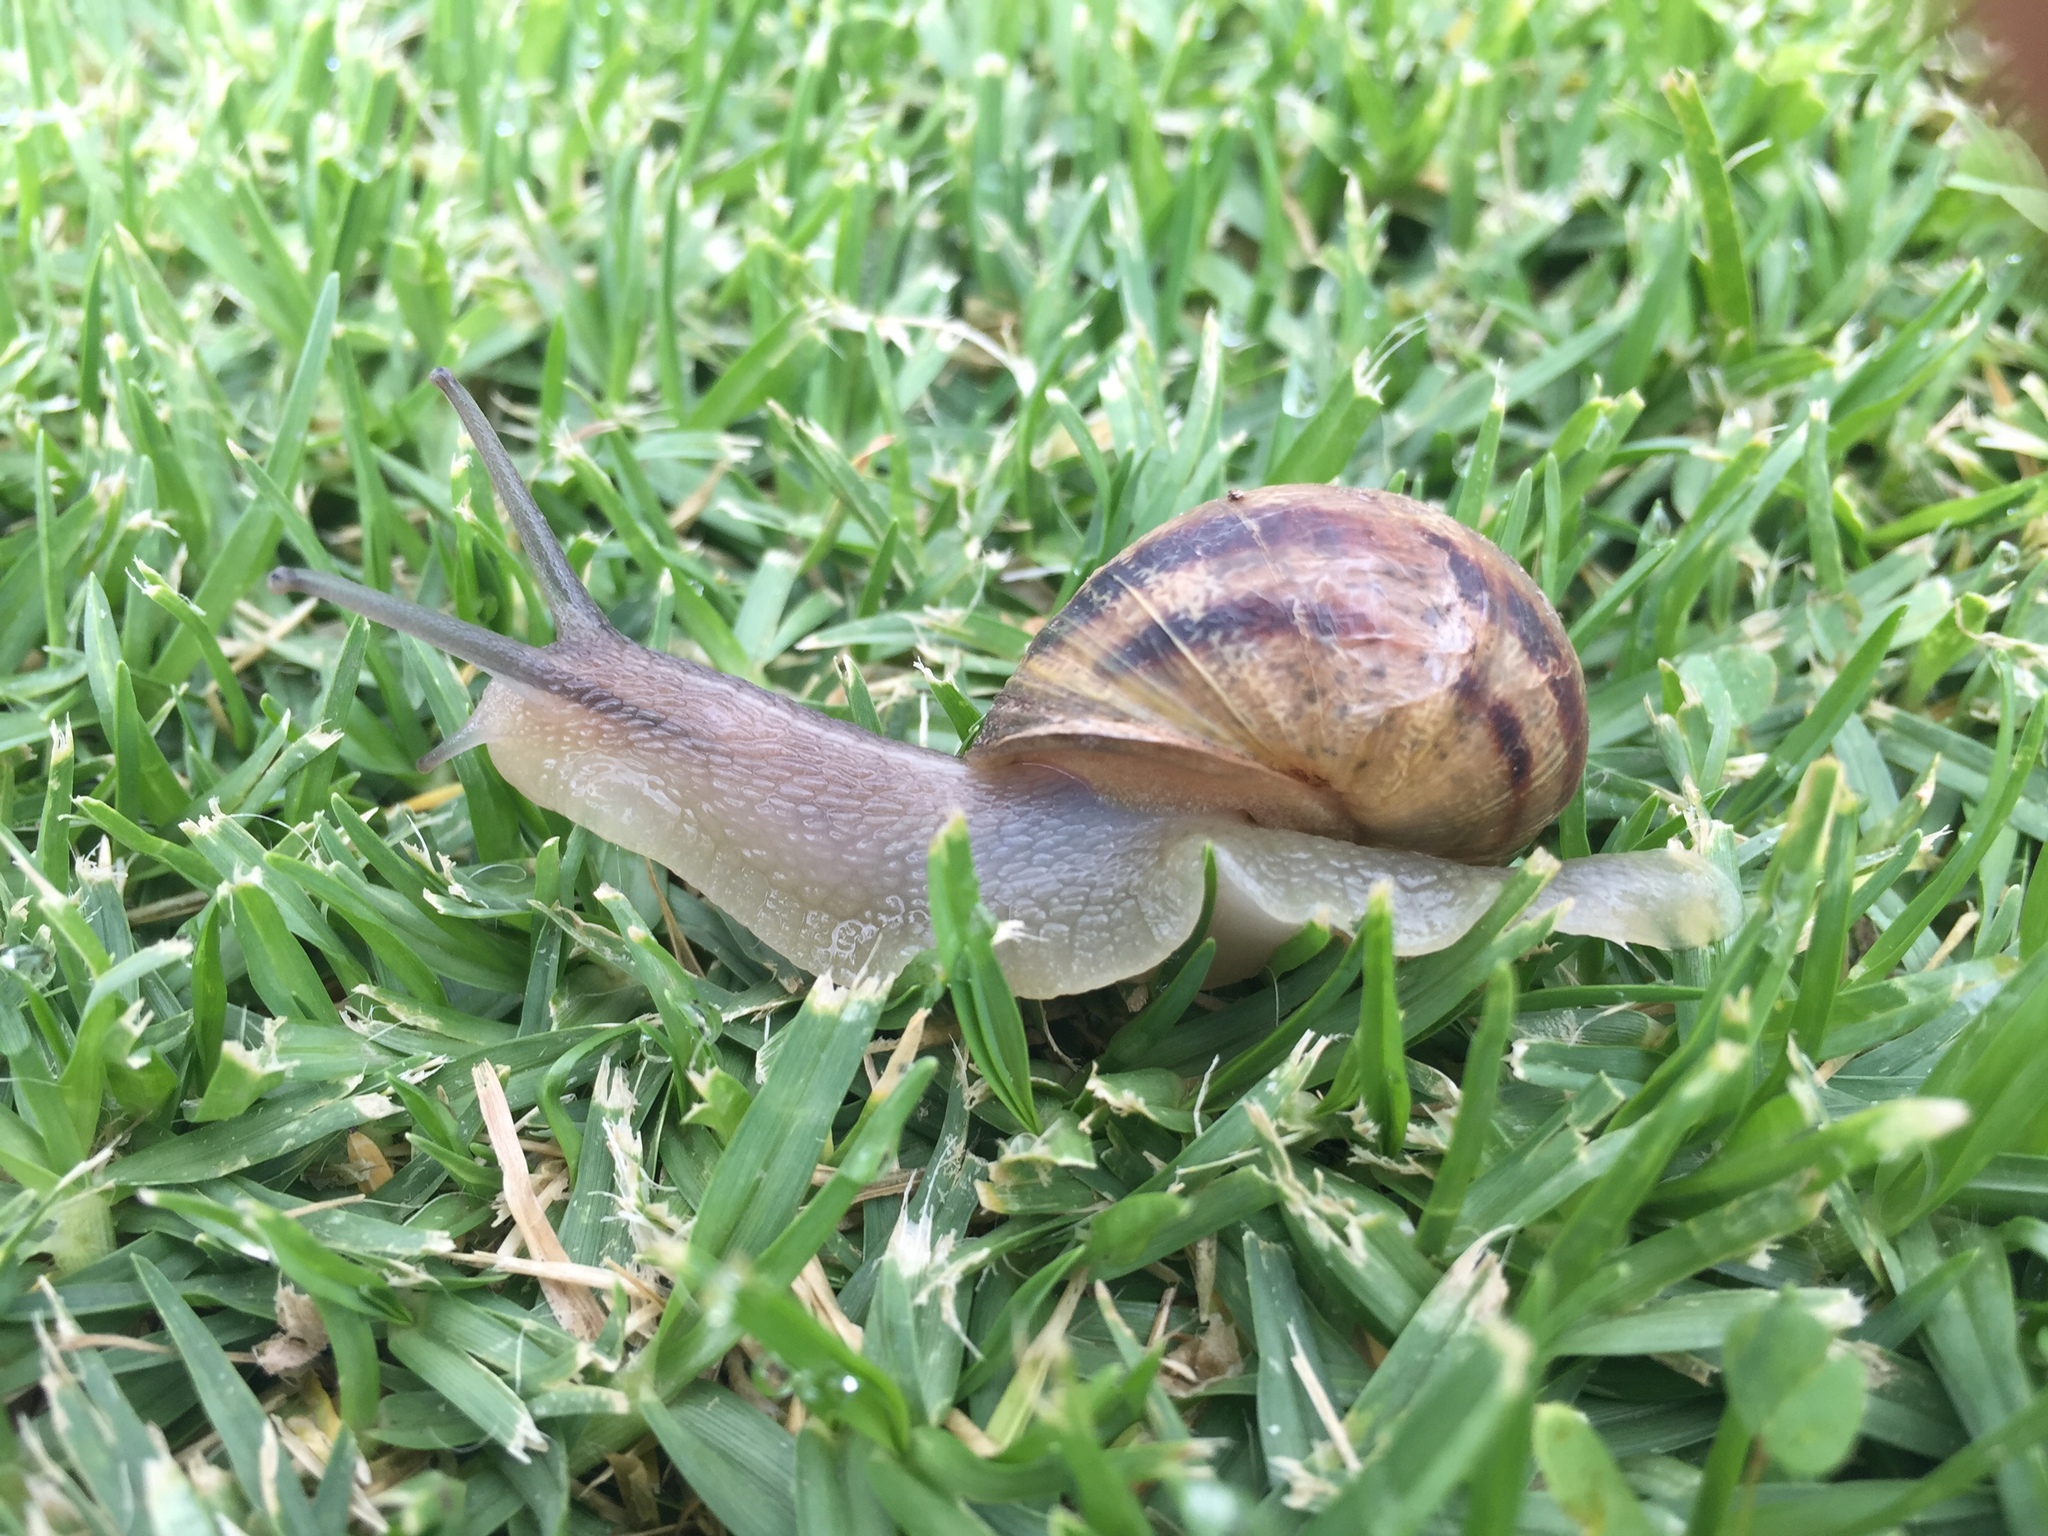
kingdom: Animalia
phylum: Mollusca
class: Gastropoda
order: Stylommatophora
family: Helicidae
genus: Cornu
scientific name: Cornu aspersum
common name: Brown garden snail
